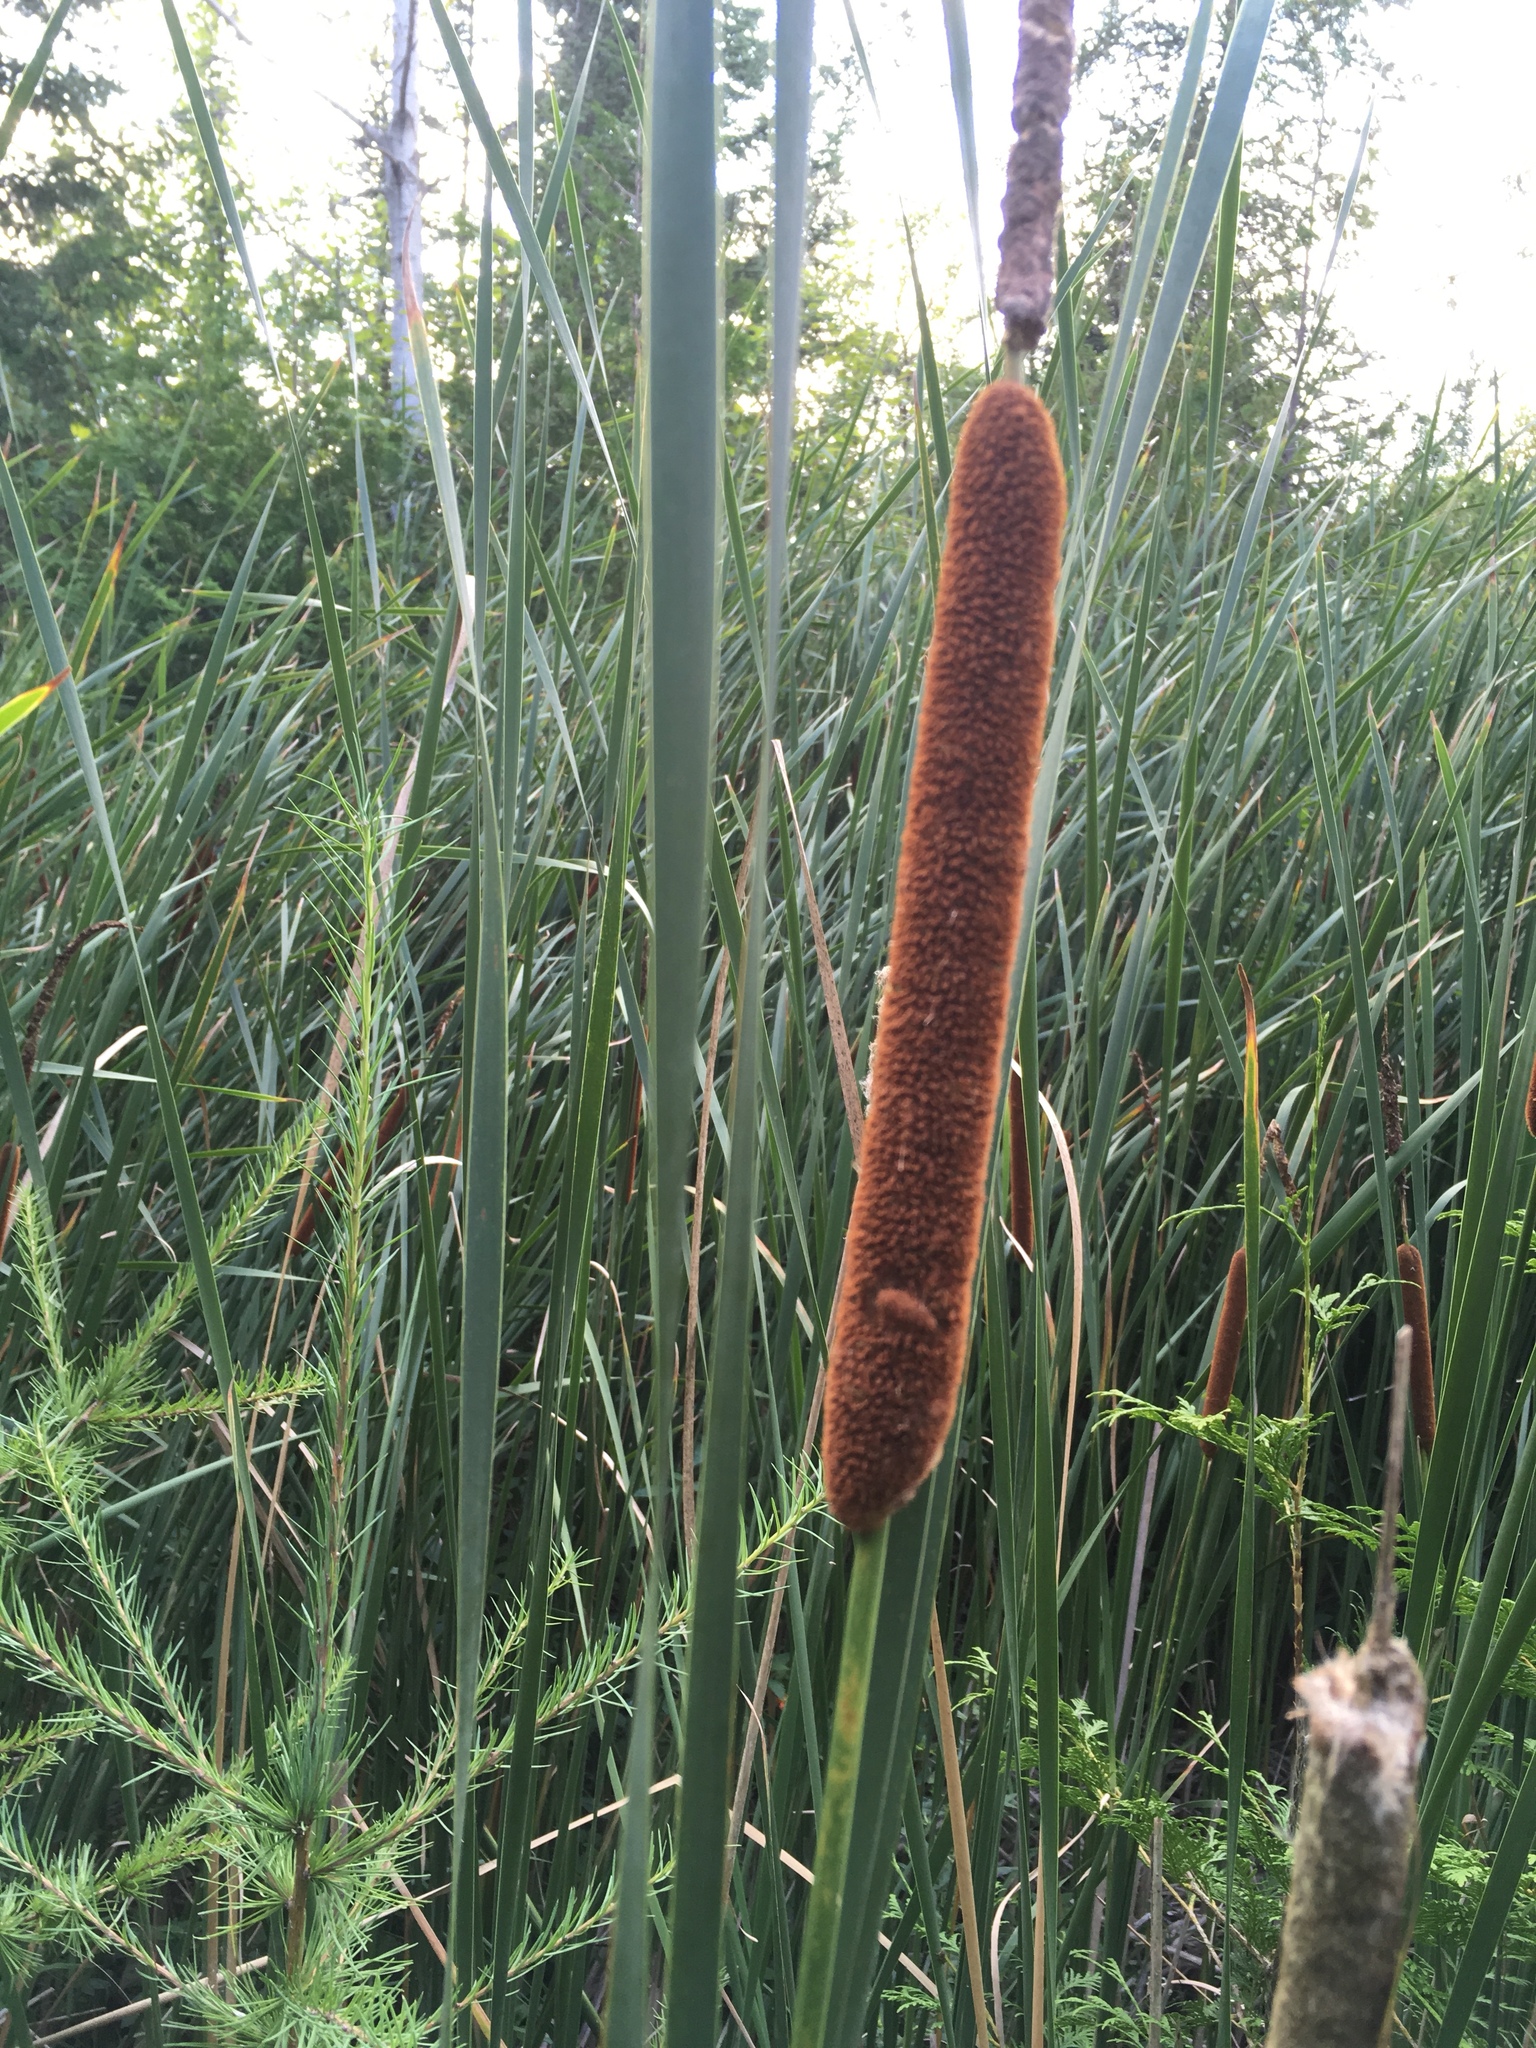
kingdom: Plantae
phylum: Tracheophyta
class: Liliopsida
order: Poales
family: Typhaceae
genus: Typha
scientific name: Typha latifolia
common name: Broadleaf cattail
